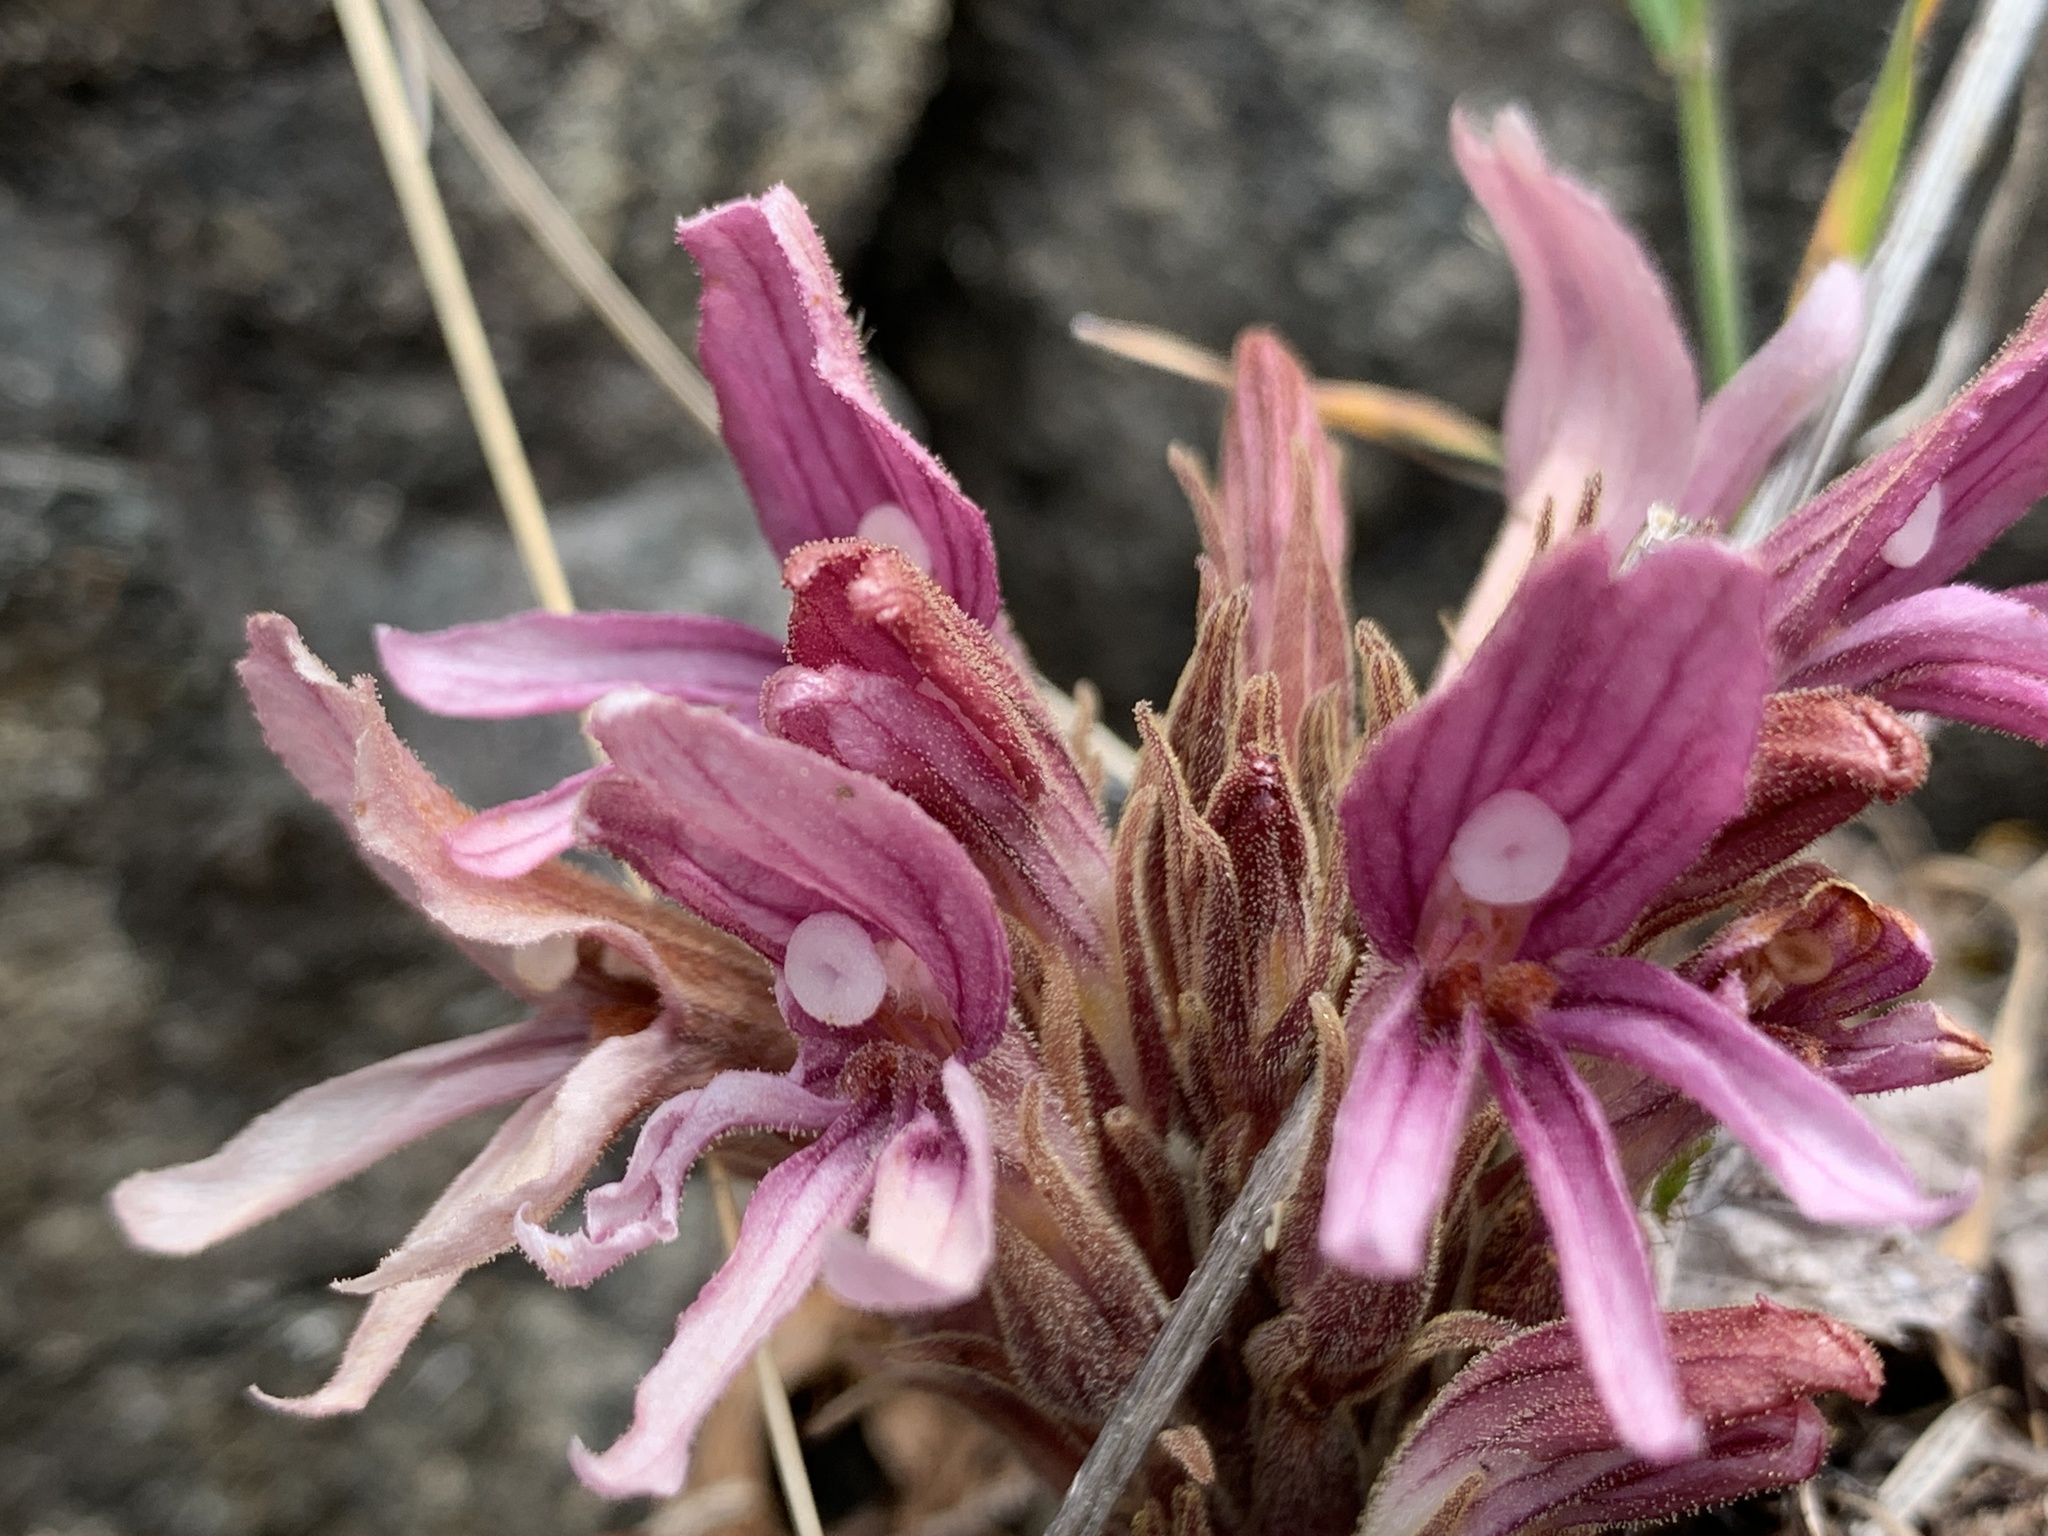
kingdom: Plantae
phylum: Tracheophyta
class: Magnoliopsida
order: Lamiales
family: Orobanchaceae
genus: Aphyllon
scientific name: Aphyllon californicum
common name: California broomrape
